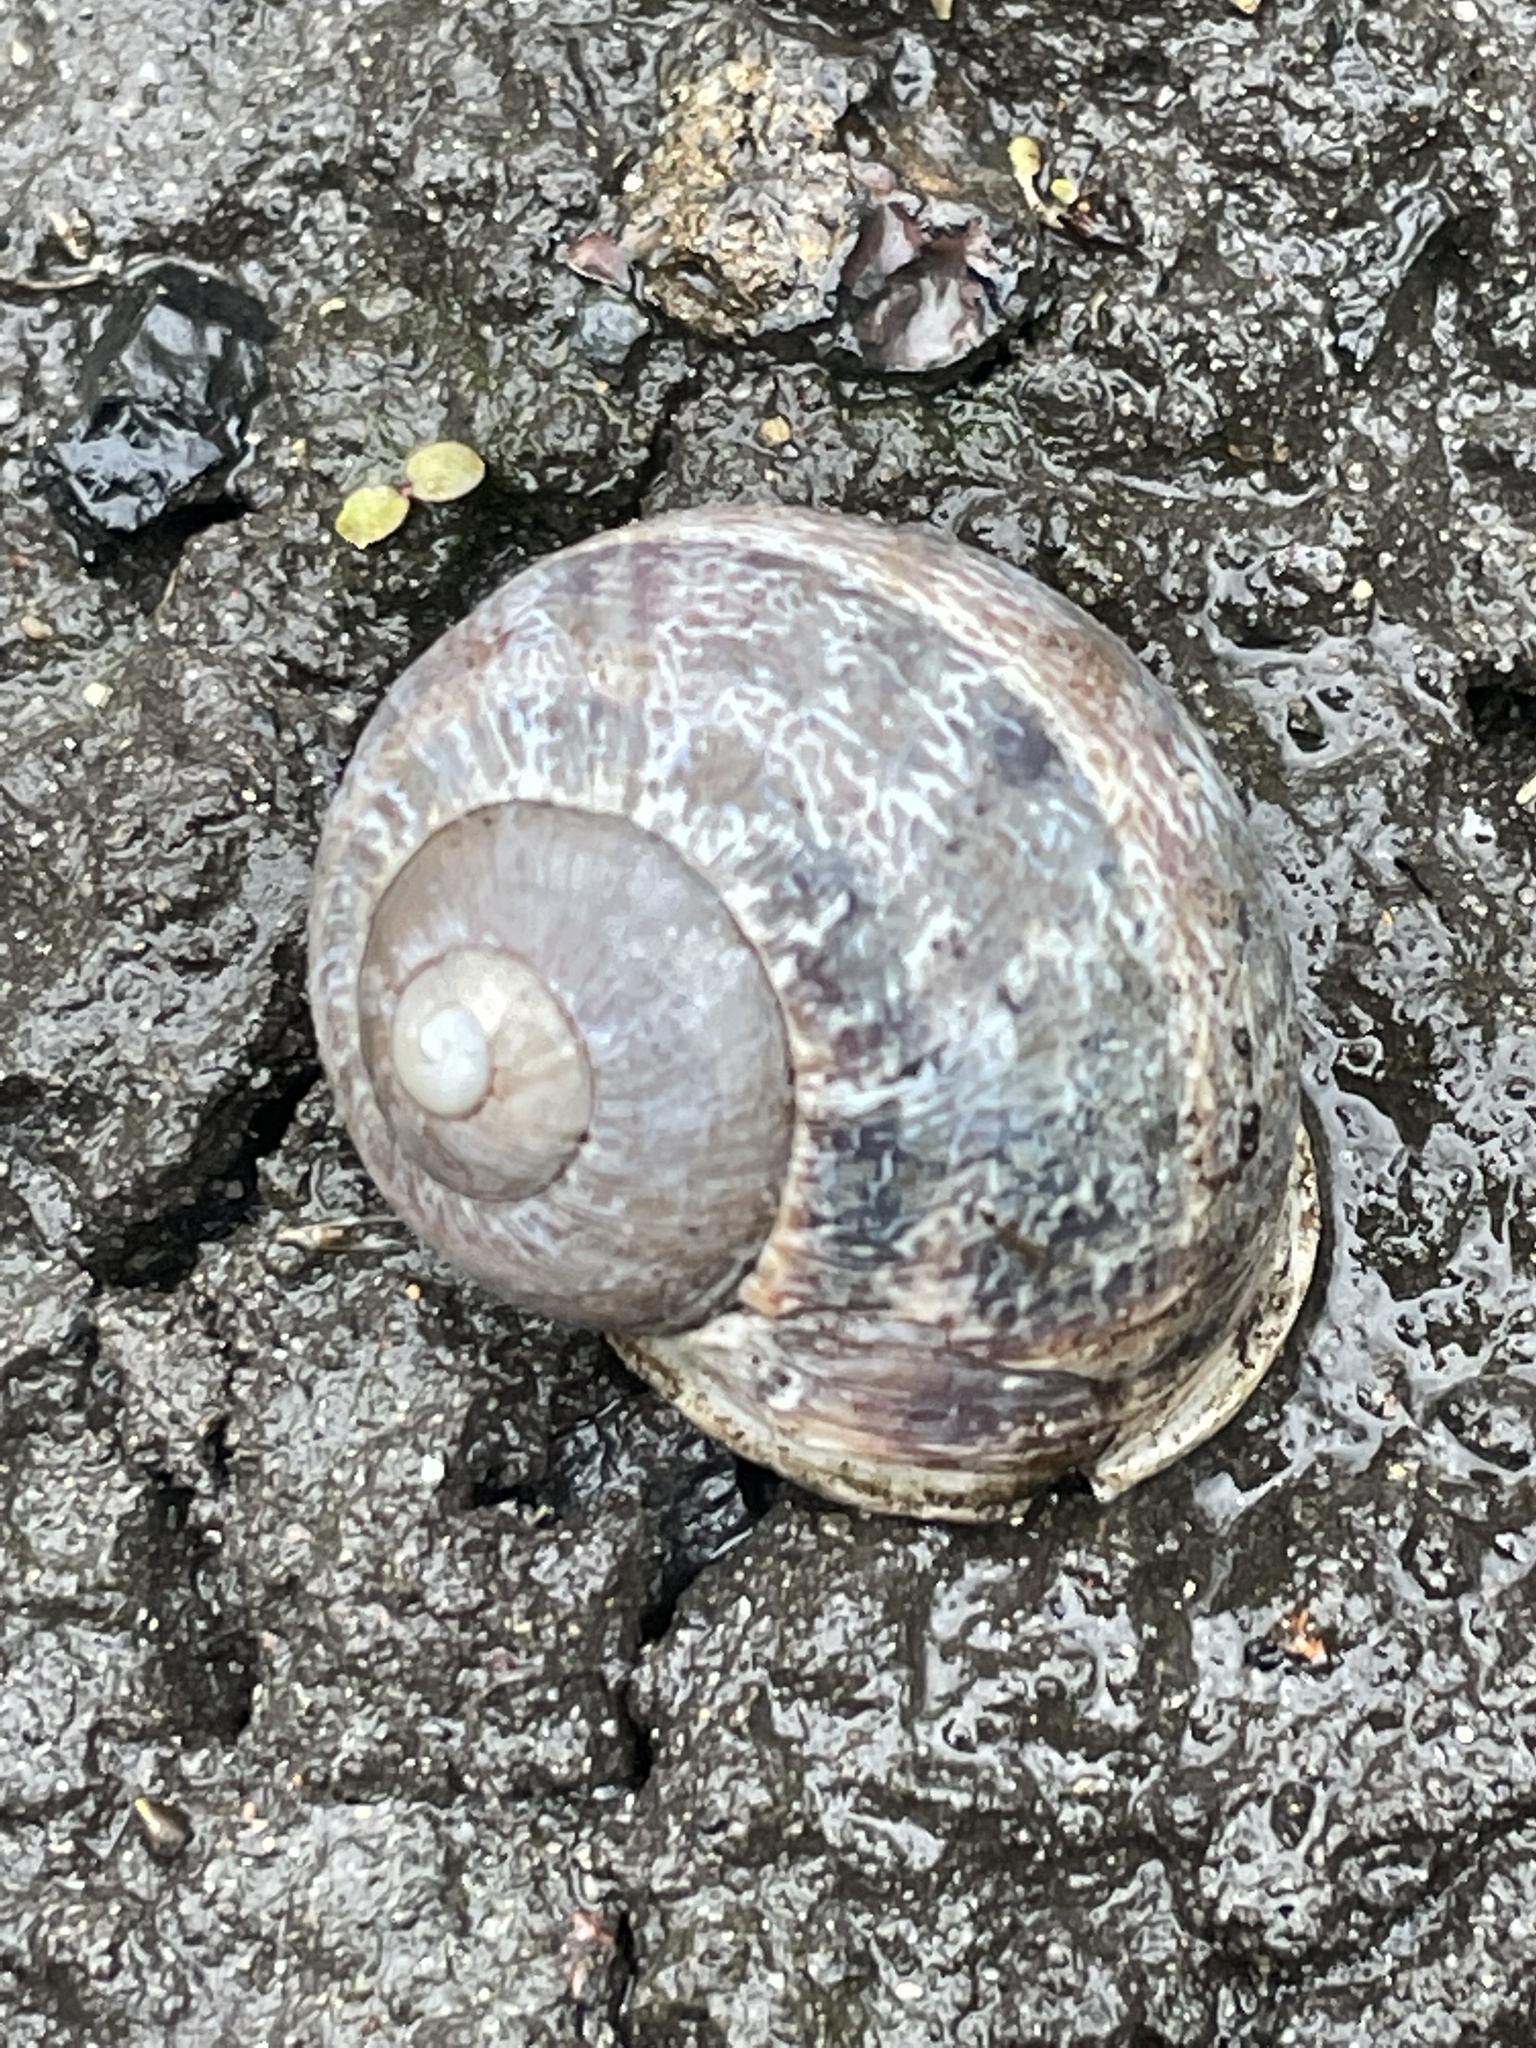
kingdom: Animalia
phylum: Mollusca
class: Gastropoda
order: Stylommatophora
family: Helicidae
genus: Cornu
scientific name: Cornu aspersum
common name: Brown garden snail
